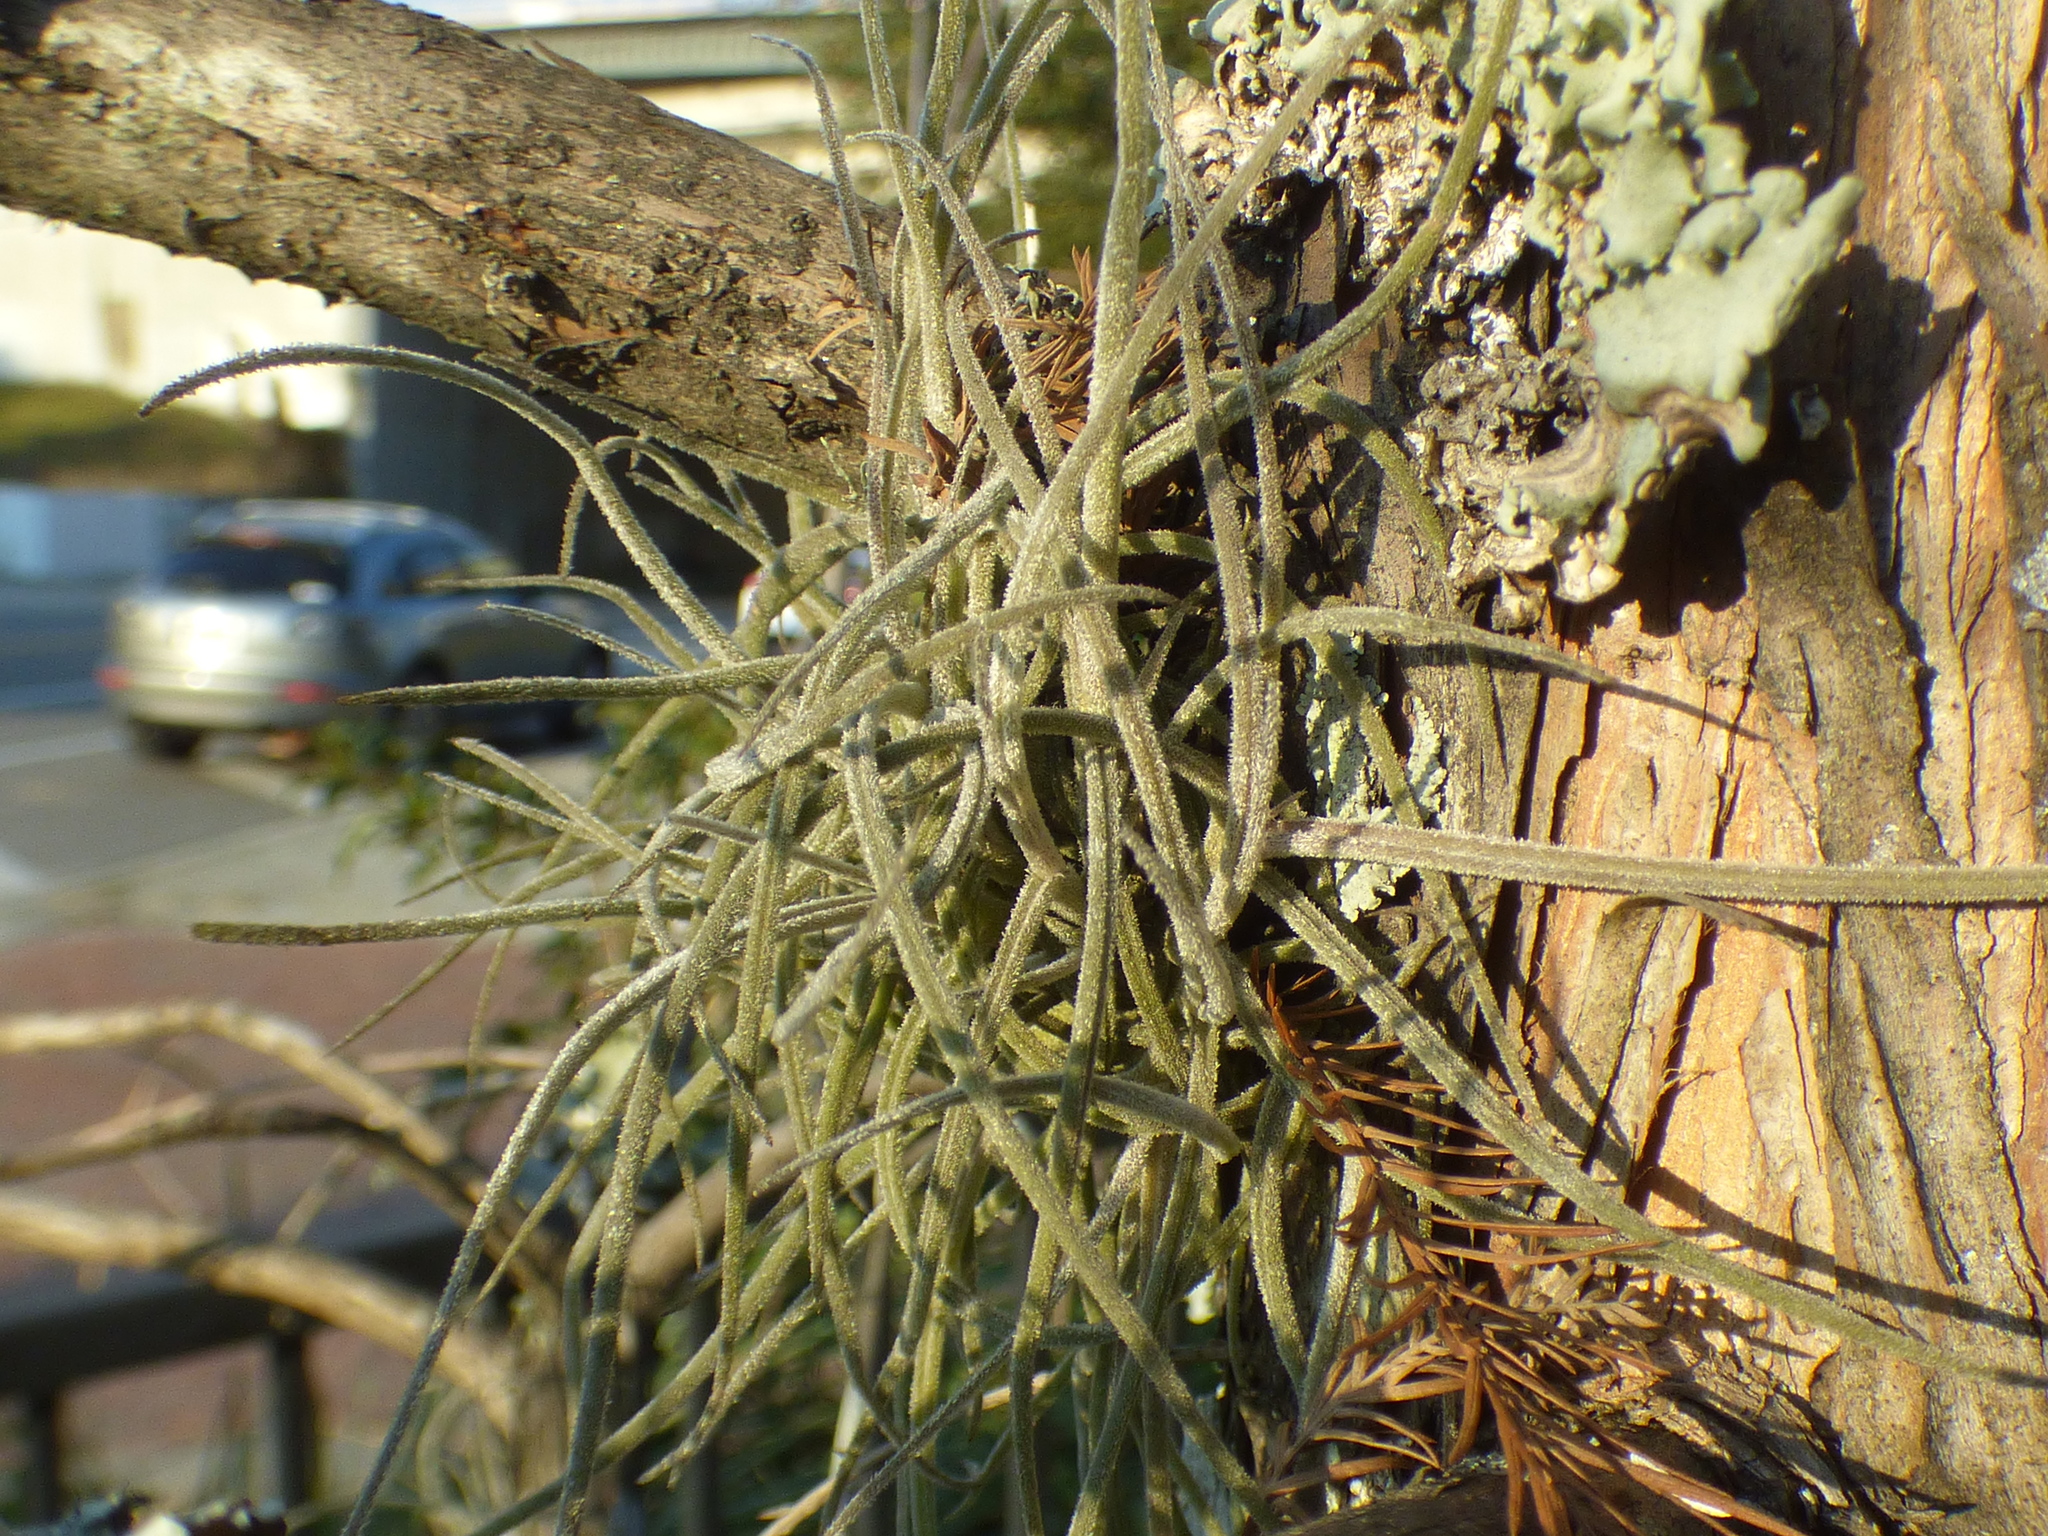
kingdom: Plantae
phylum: Tracheophyta
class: Liliopsida
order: Poales
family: Bromeliaceae
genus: Tillandsia
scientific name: Tillandsia recurvata
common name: Small ballmoss
